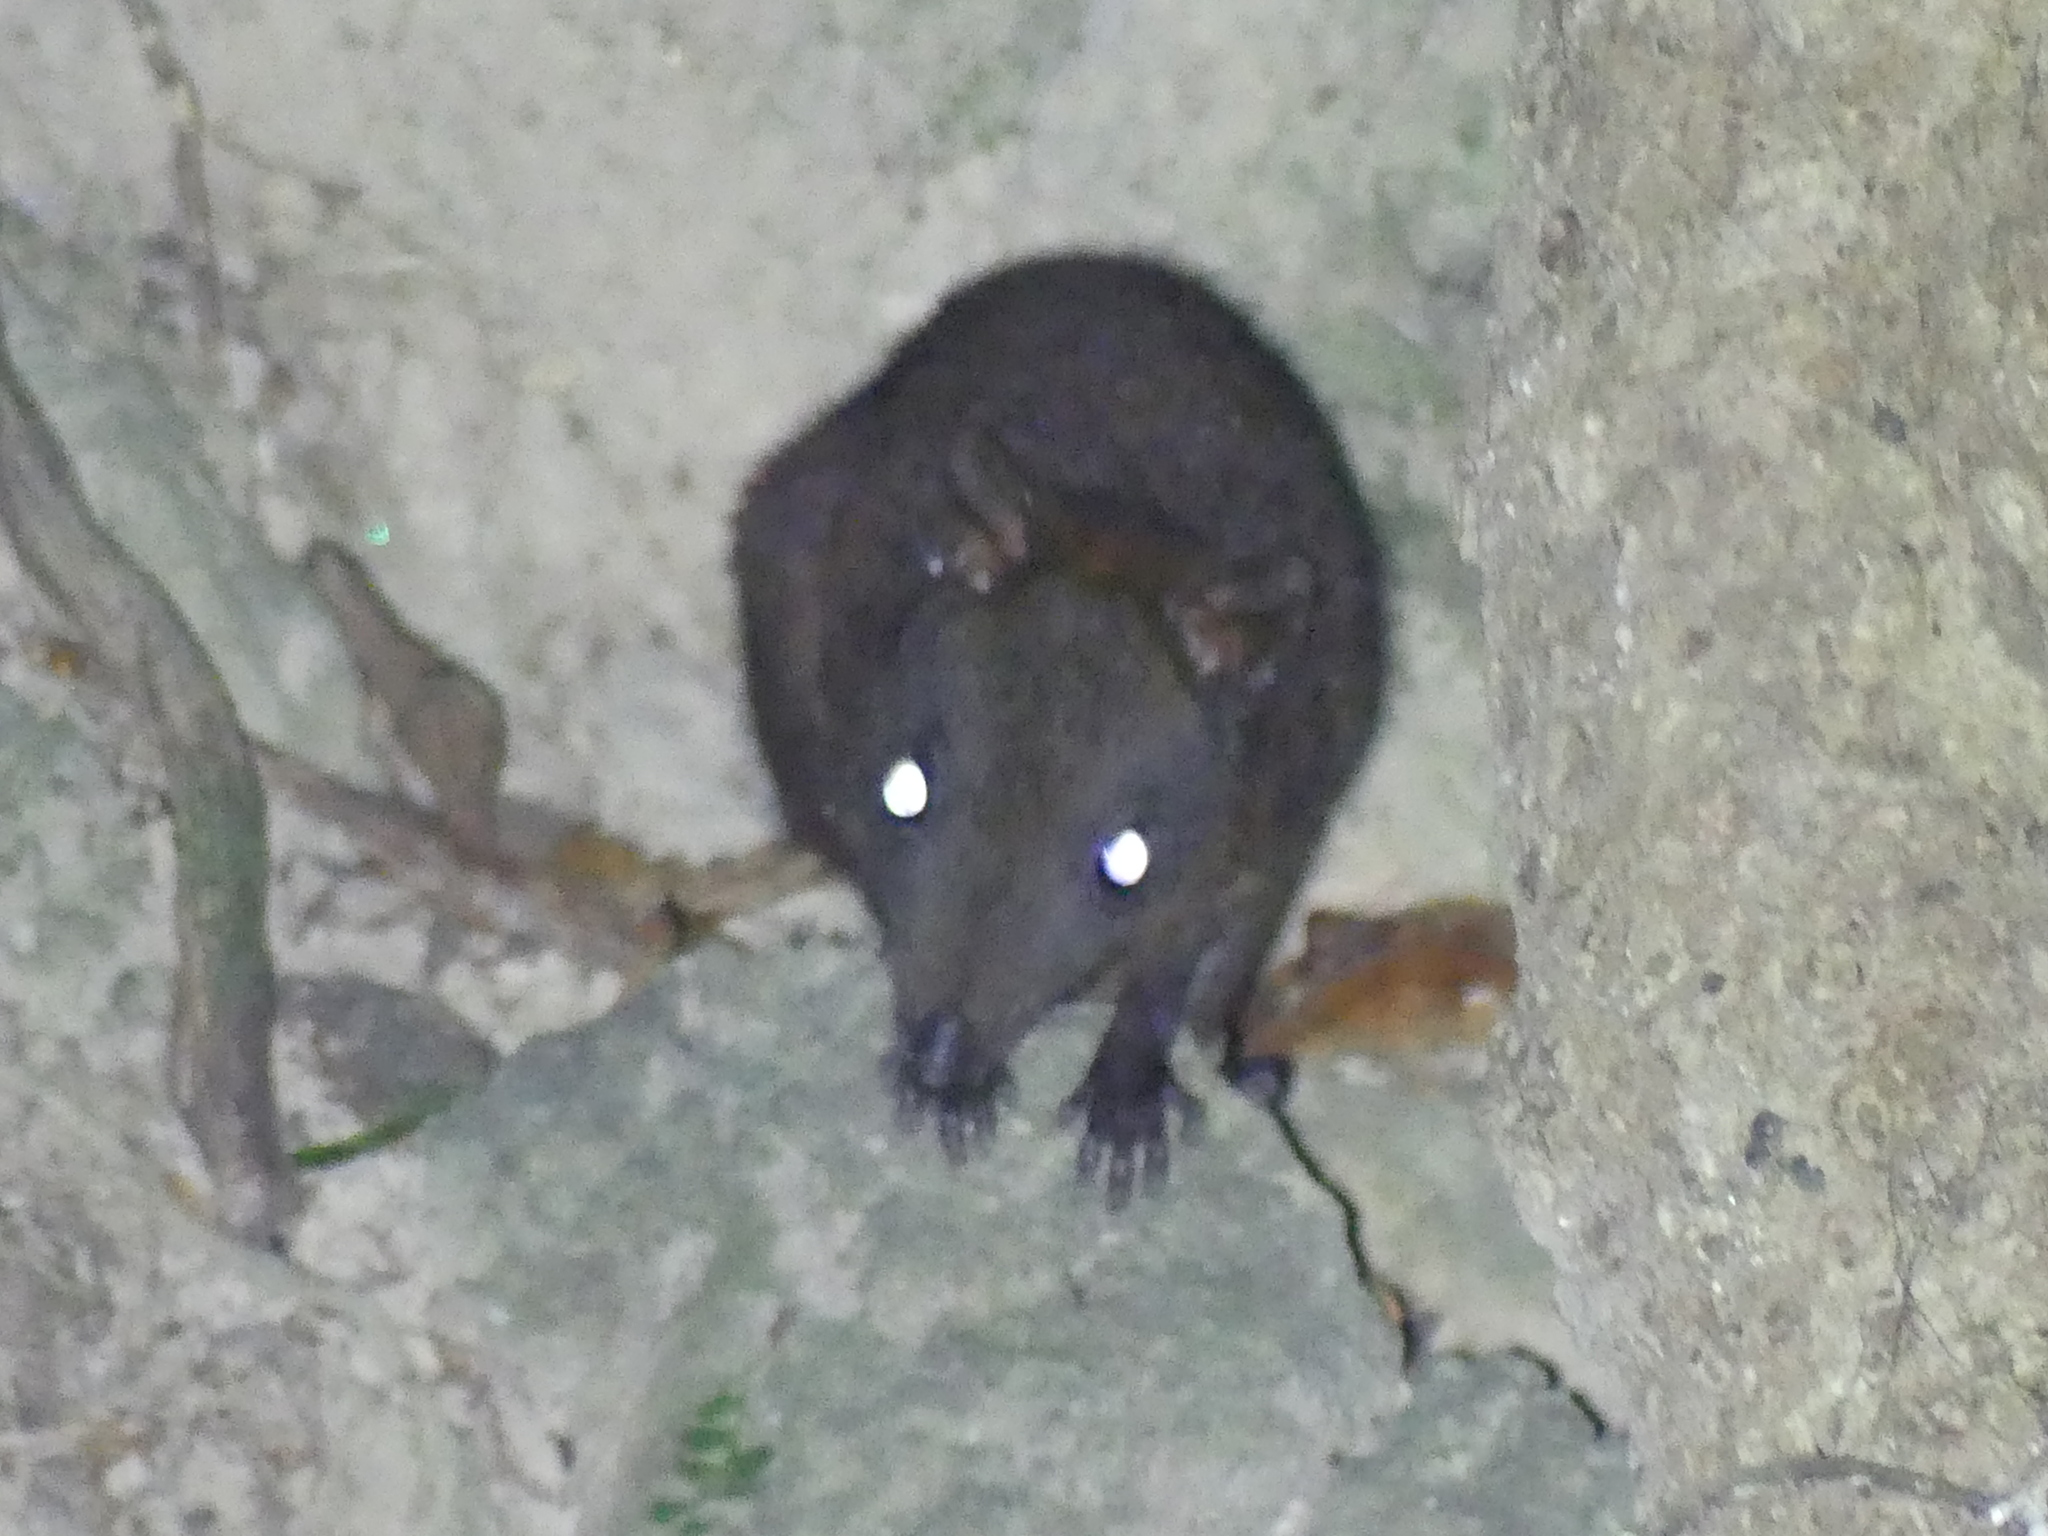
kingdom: Animalia
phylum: Chordata
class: Mammalia
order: Diprotodontia
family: Hypsiprymnodontidae
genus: Hypsiprymnodon
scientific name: Hypsiprymnodon moschatus
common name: Musky rat-kangaroo
